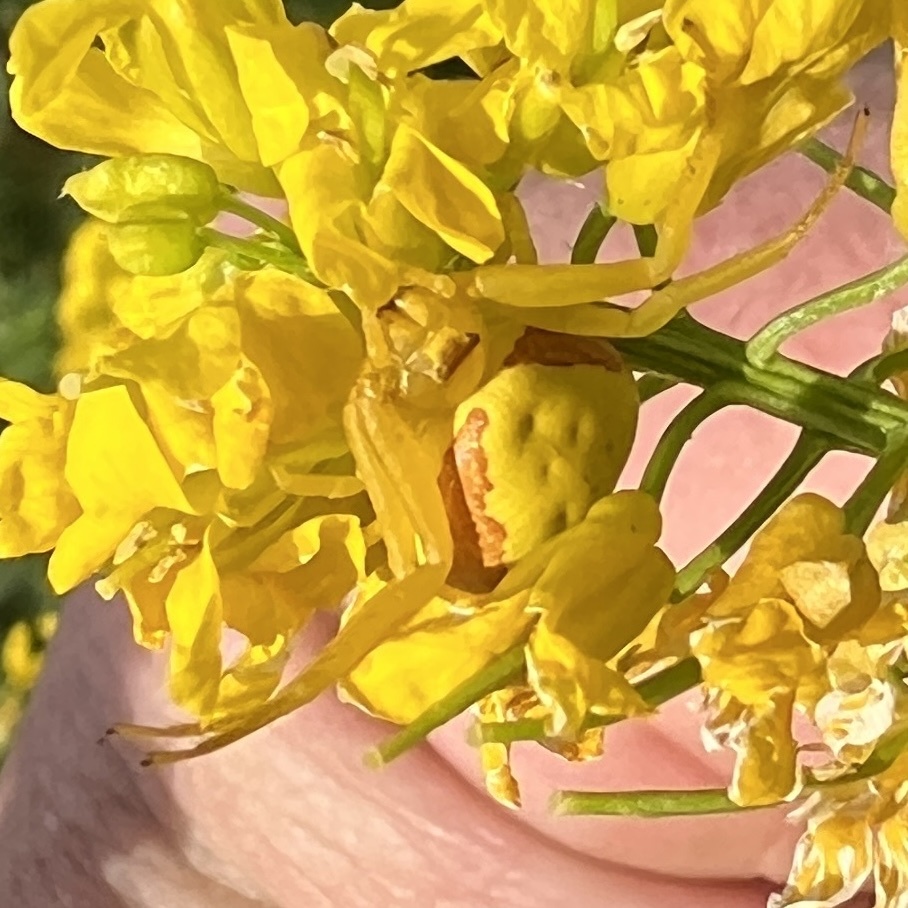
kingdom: Animalia
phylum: Arthropoda
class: Arachnida
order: Araneae
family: Thomisidae
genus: Misumena
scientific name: Misumena vatia
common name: Goldenrod crab spider
